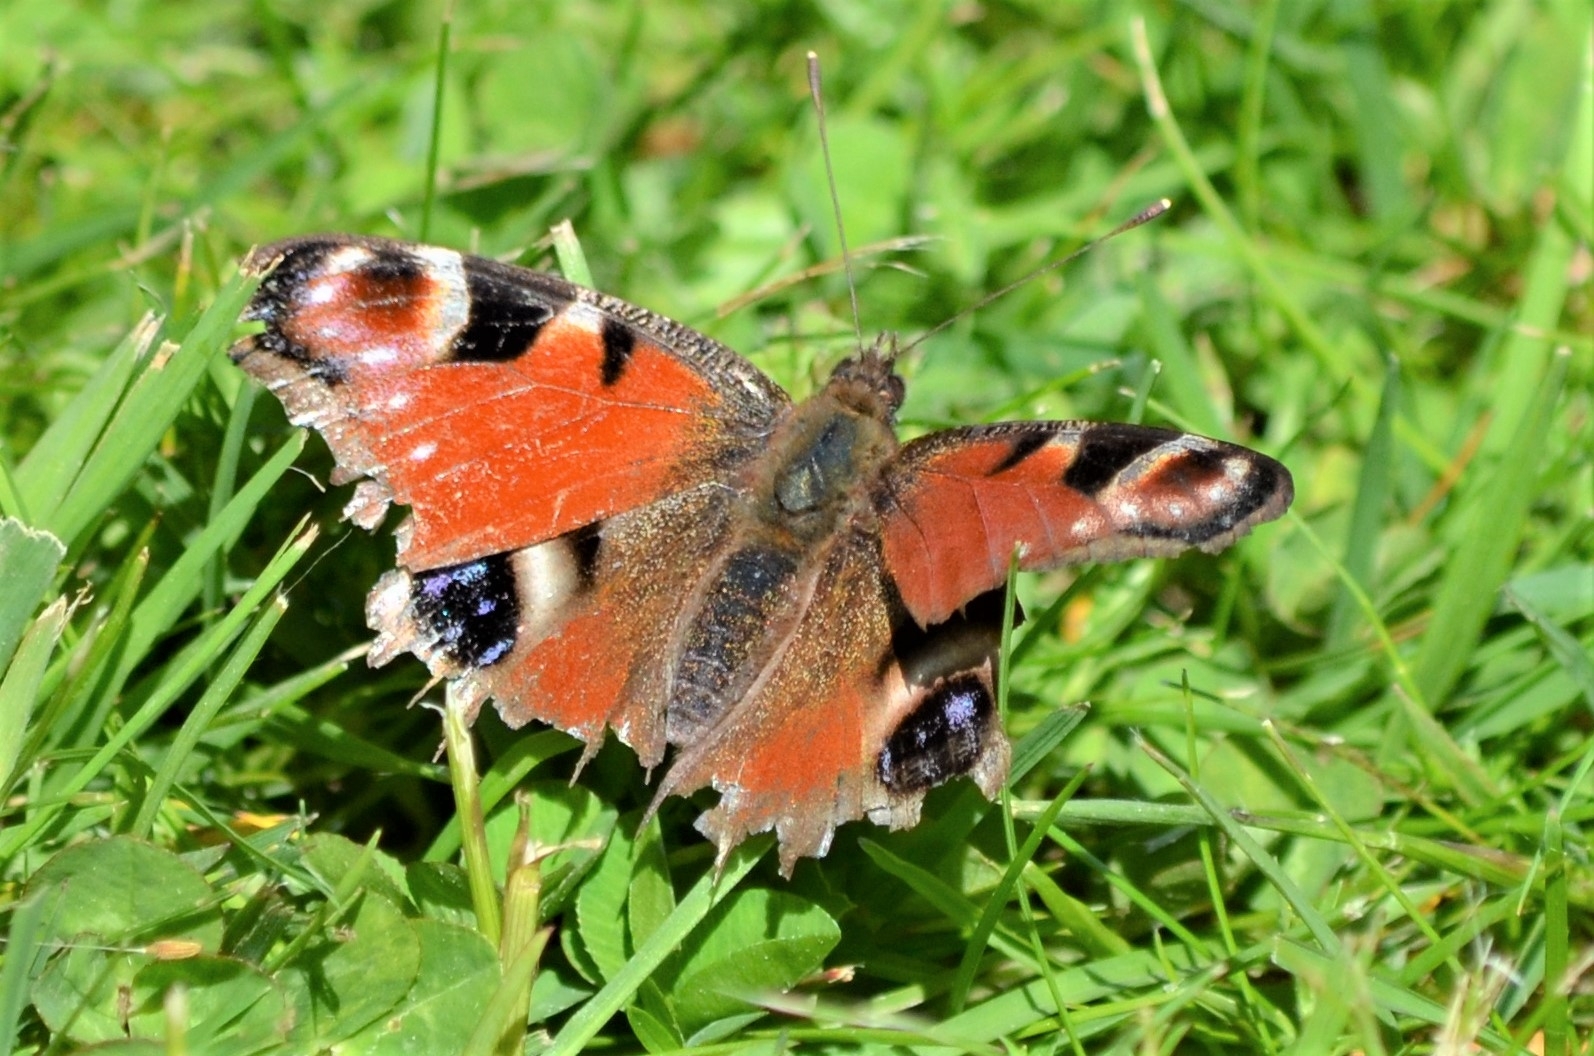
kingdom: Animalia
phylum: Arthropoda
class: Insecta
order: Lepidoptera
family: Nymphalidae
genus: Aglais
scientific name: Aglais io
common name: Peacock
